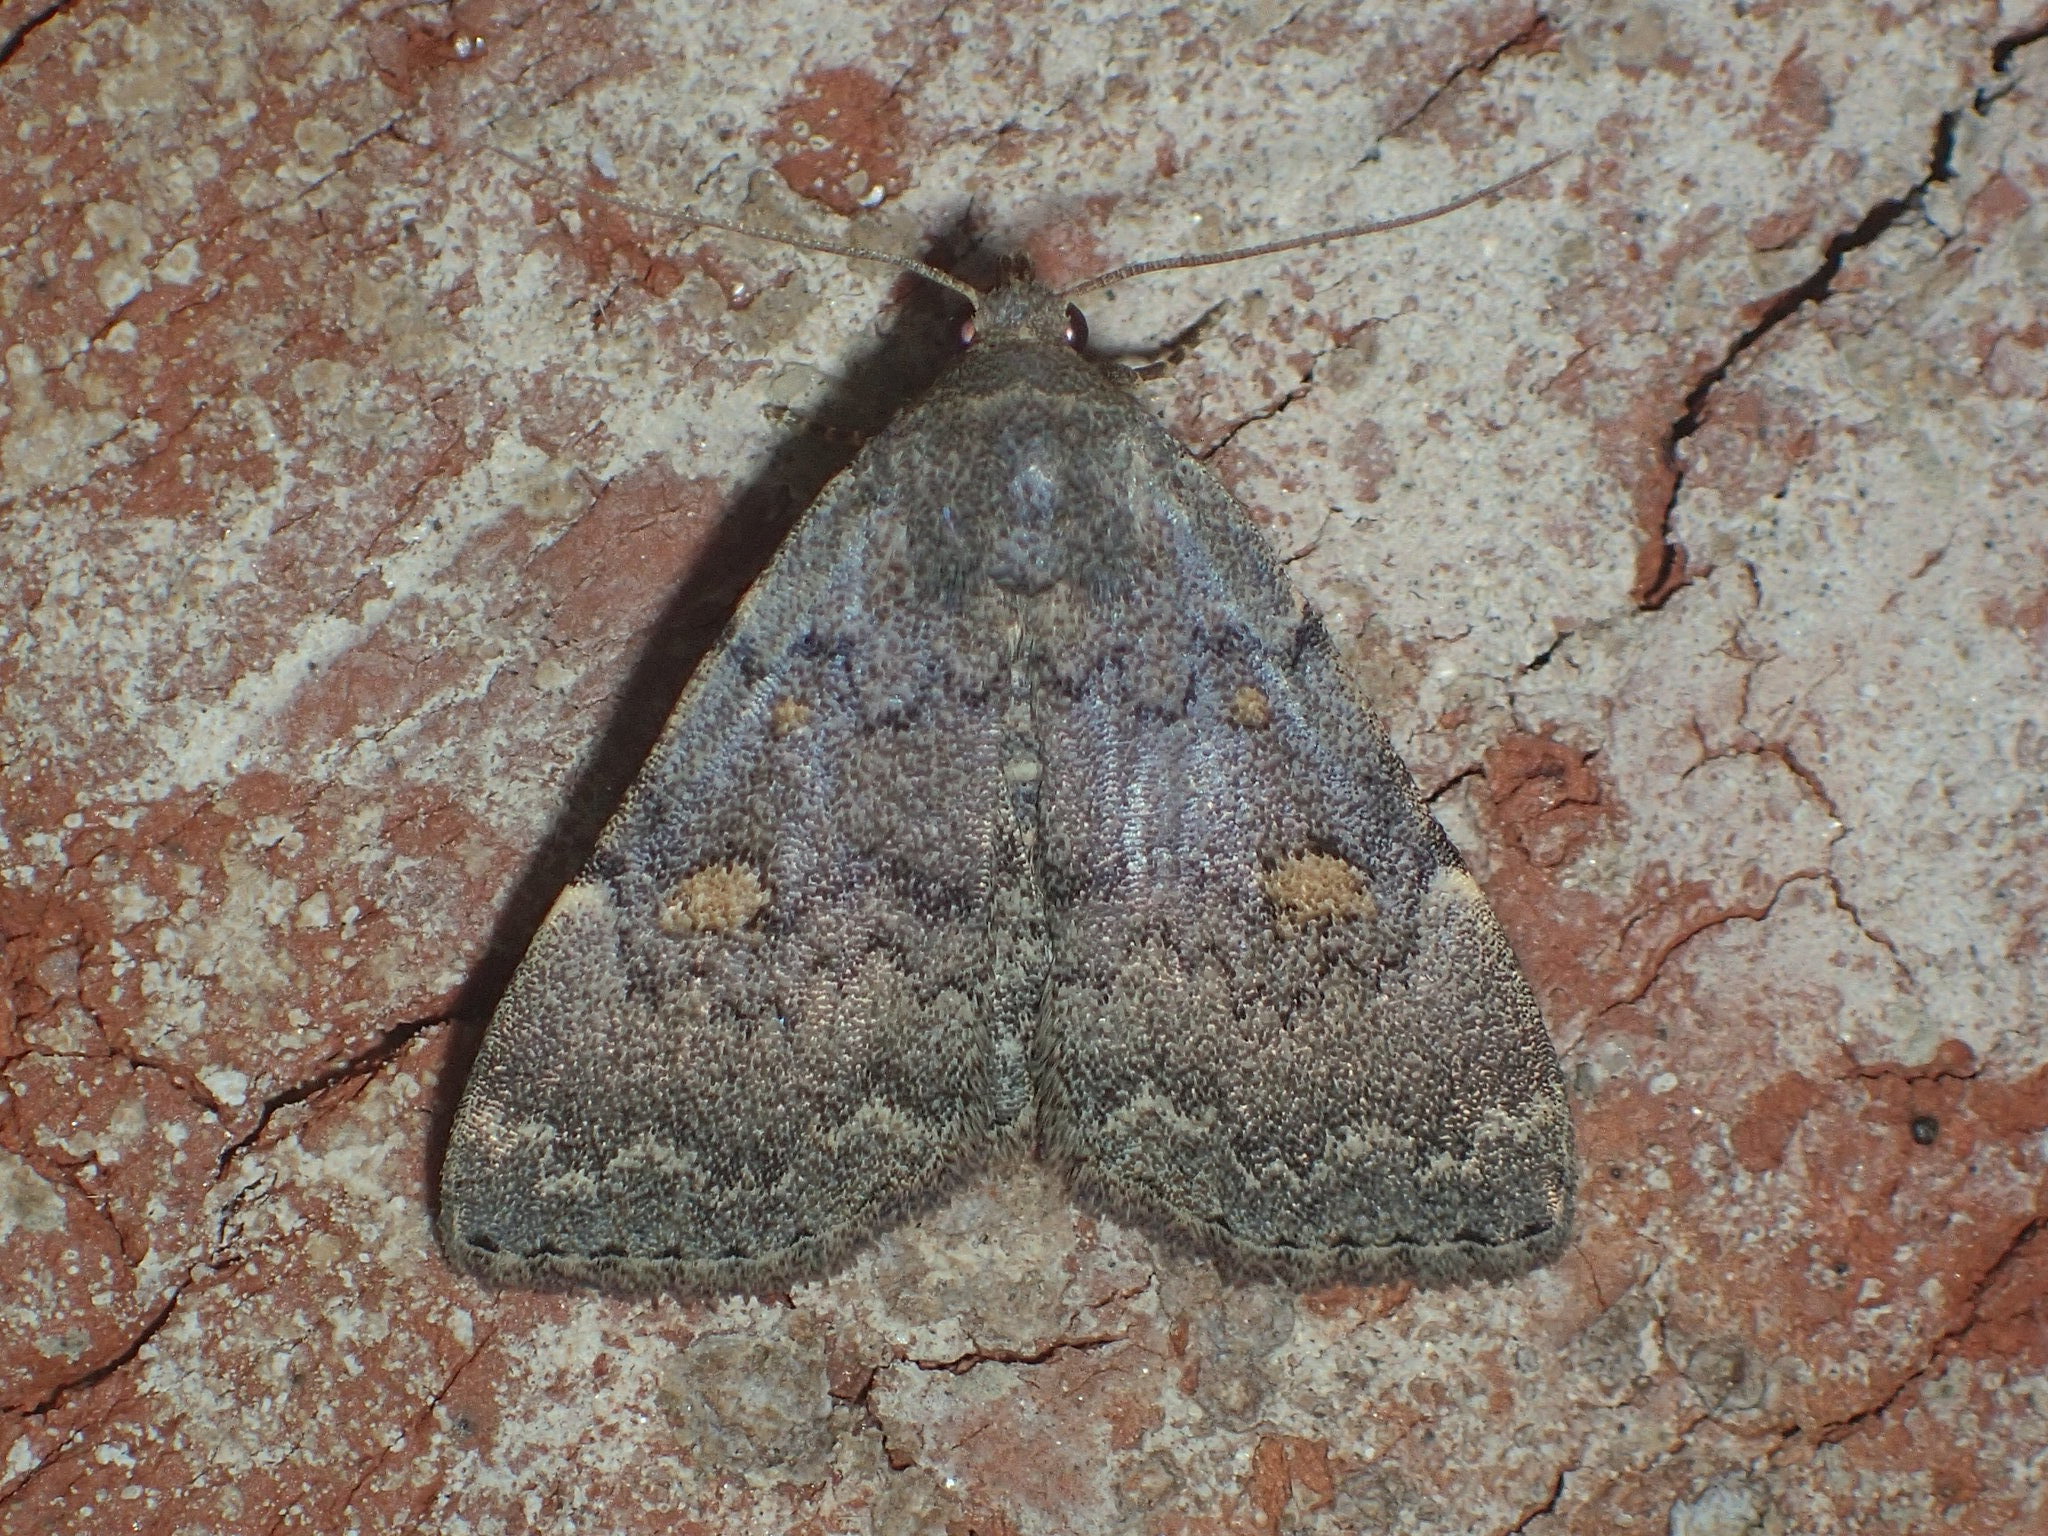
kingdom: Animalia
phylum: Arthropoda
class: Insecta
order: Lepidoptera
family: Erebidae
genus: Idia
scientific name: Idia aemula
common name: Common idia moth
